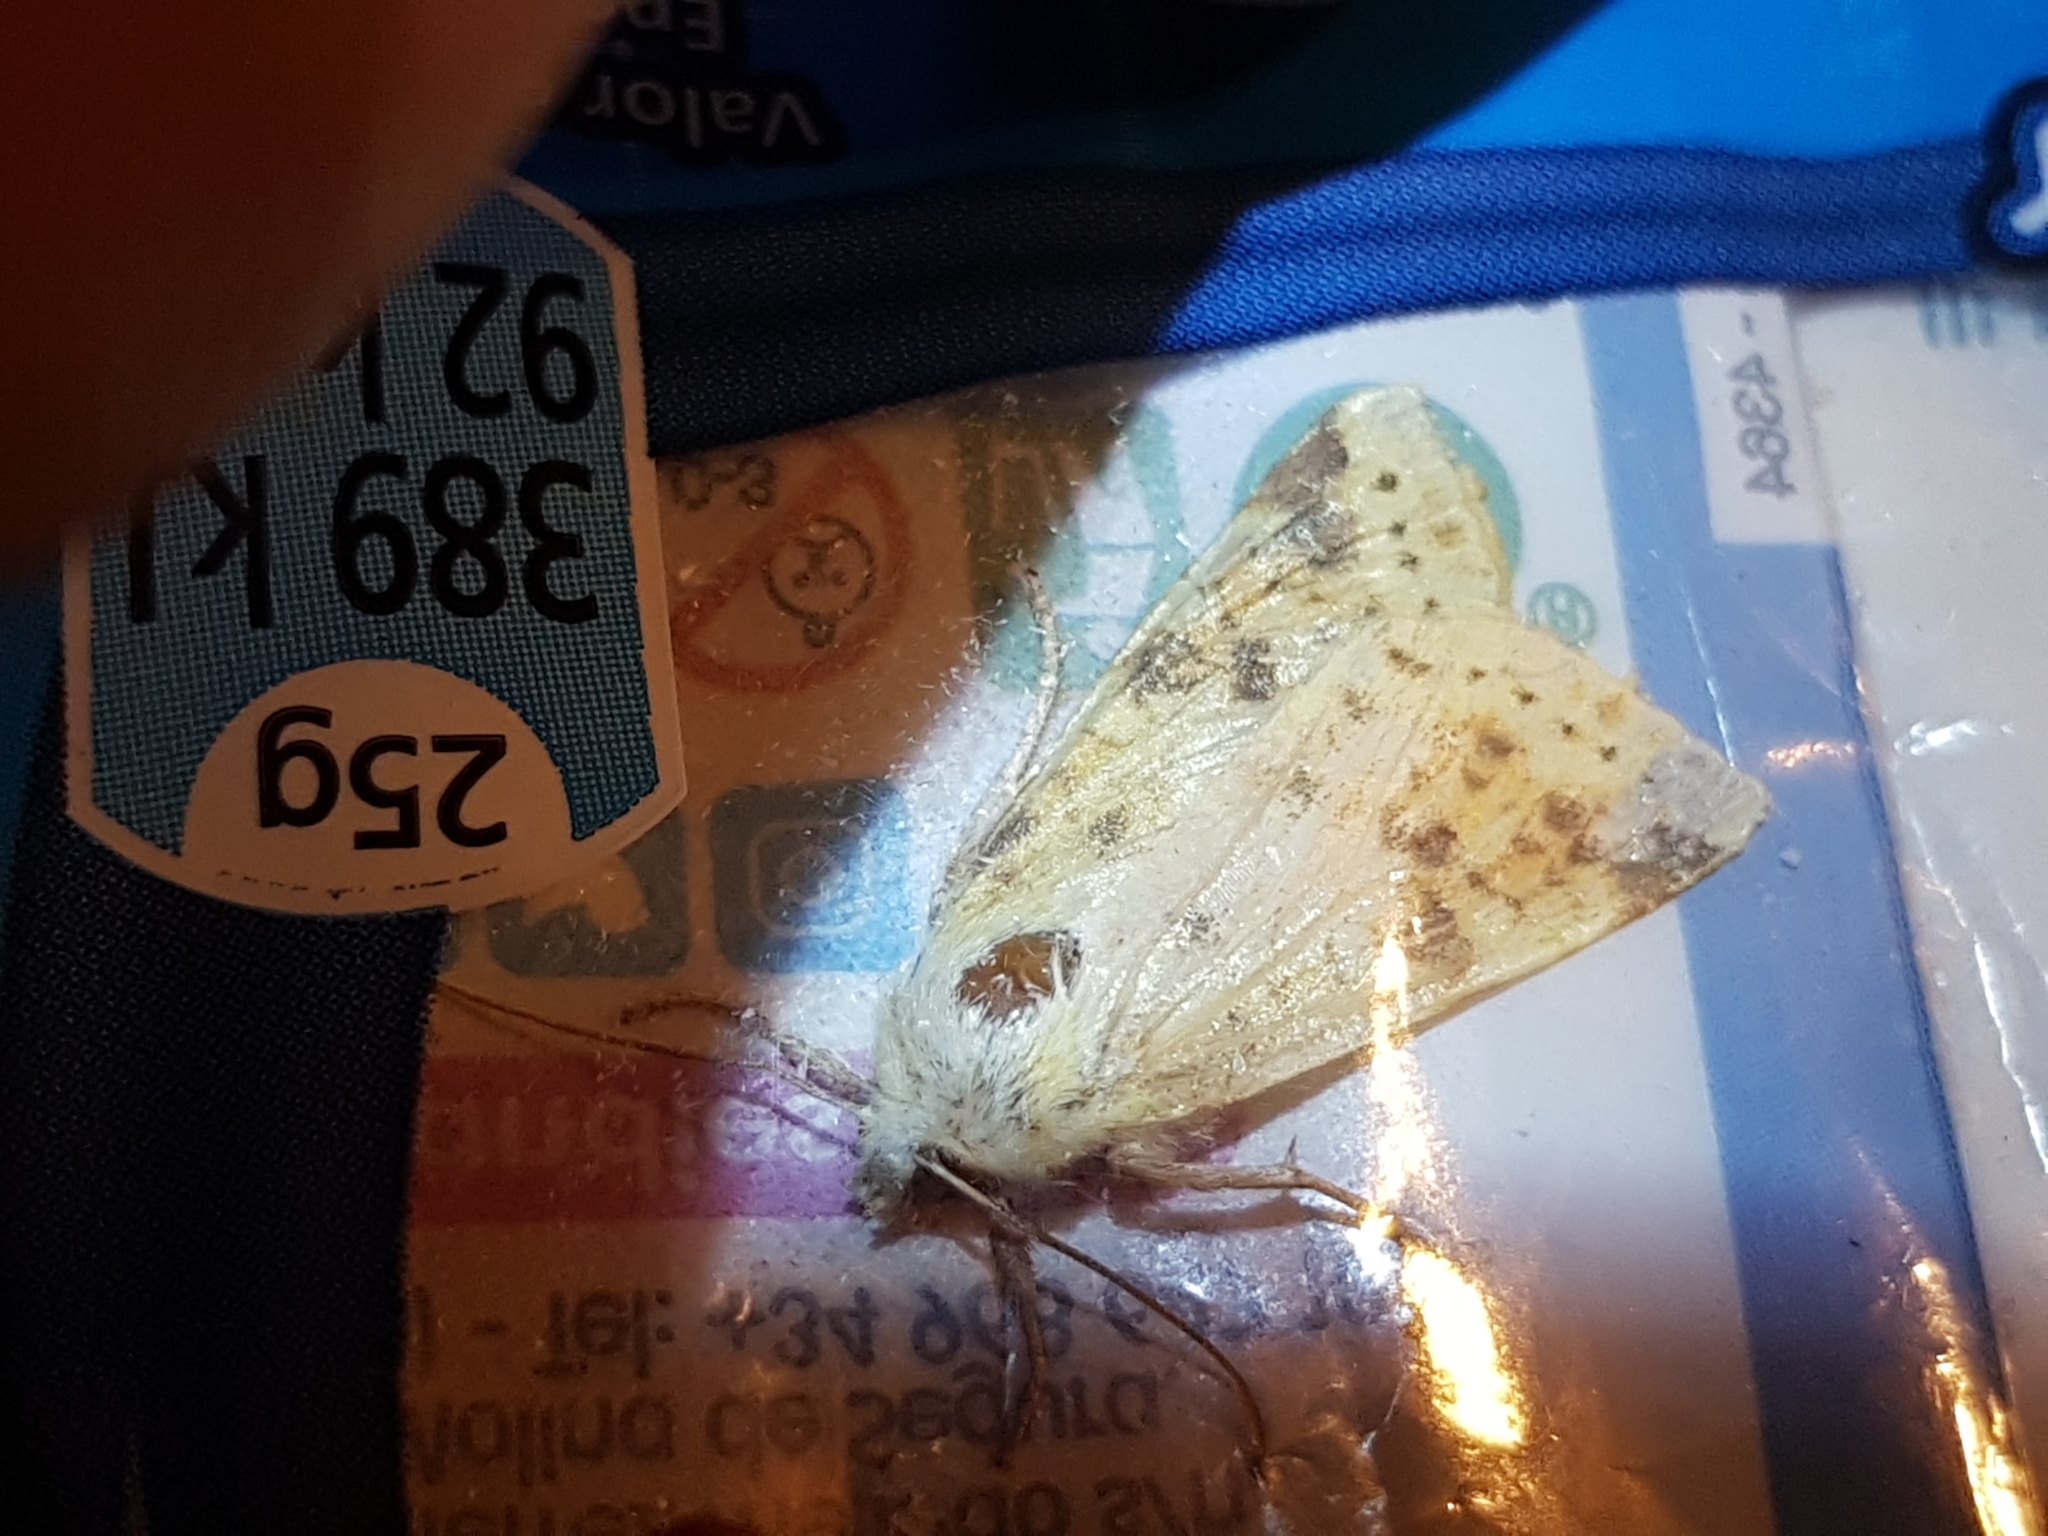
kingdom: Animalia
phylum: Arthropoda
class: Insecta
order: Lepidoptera
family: Noctuidae
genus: Xanthia
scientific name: Xanthia icteritia
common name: The sallow
